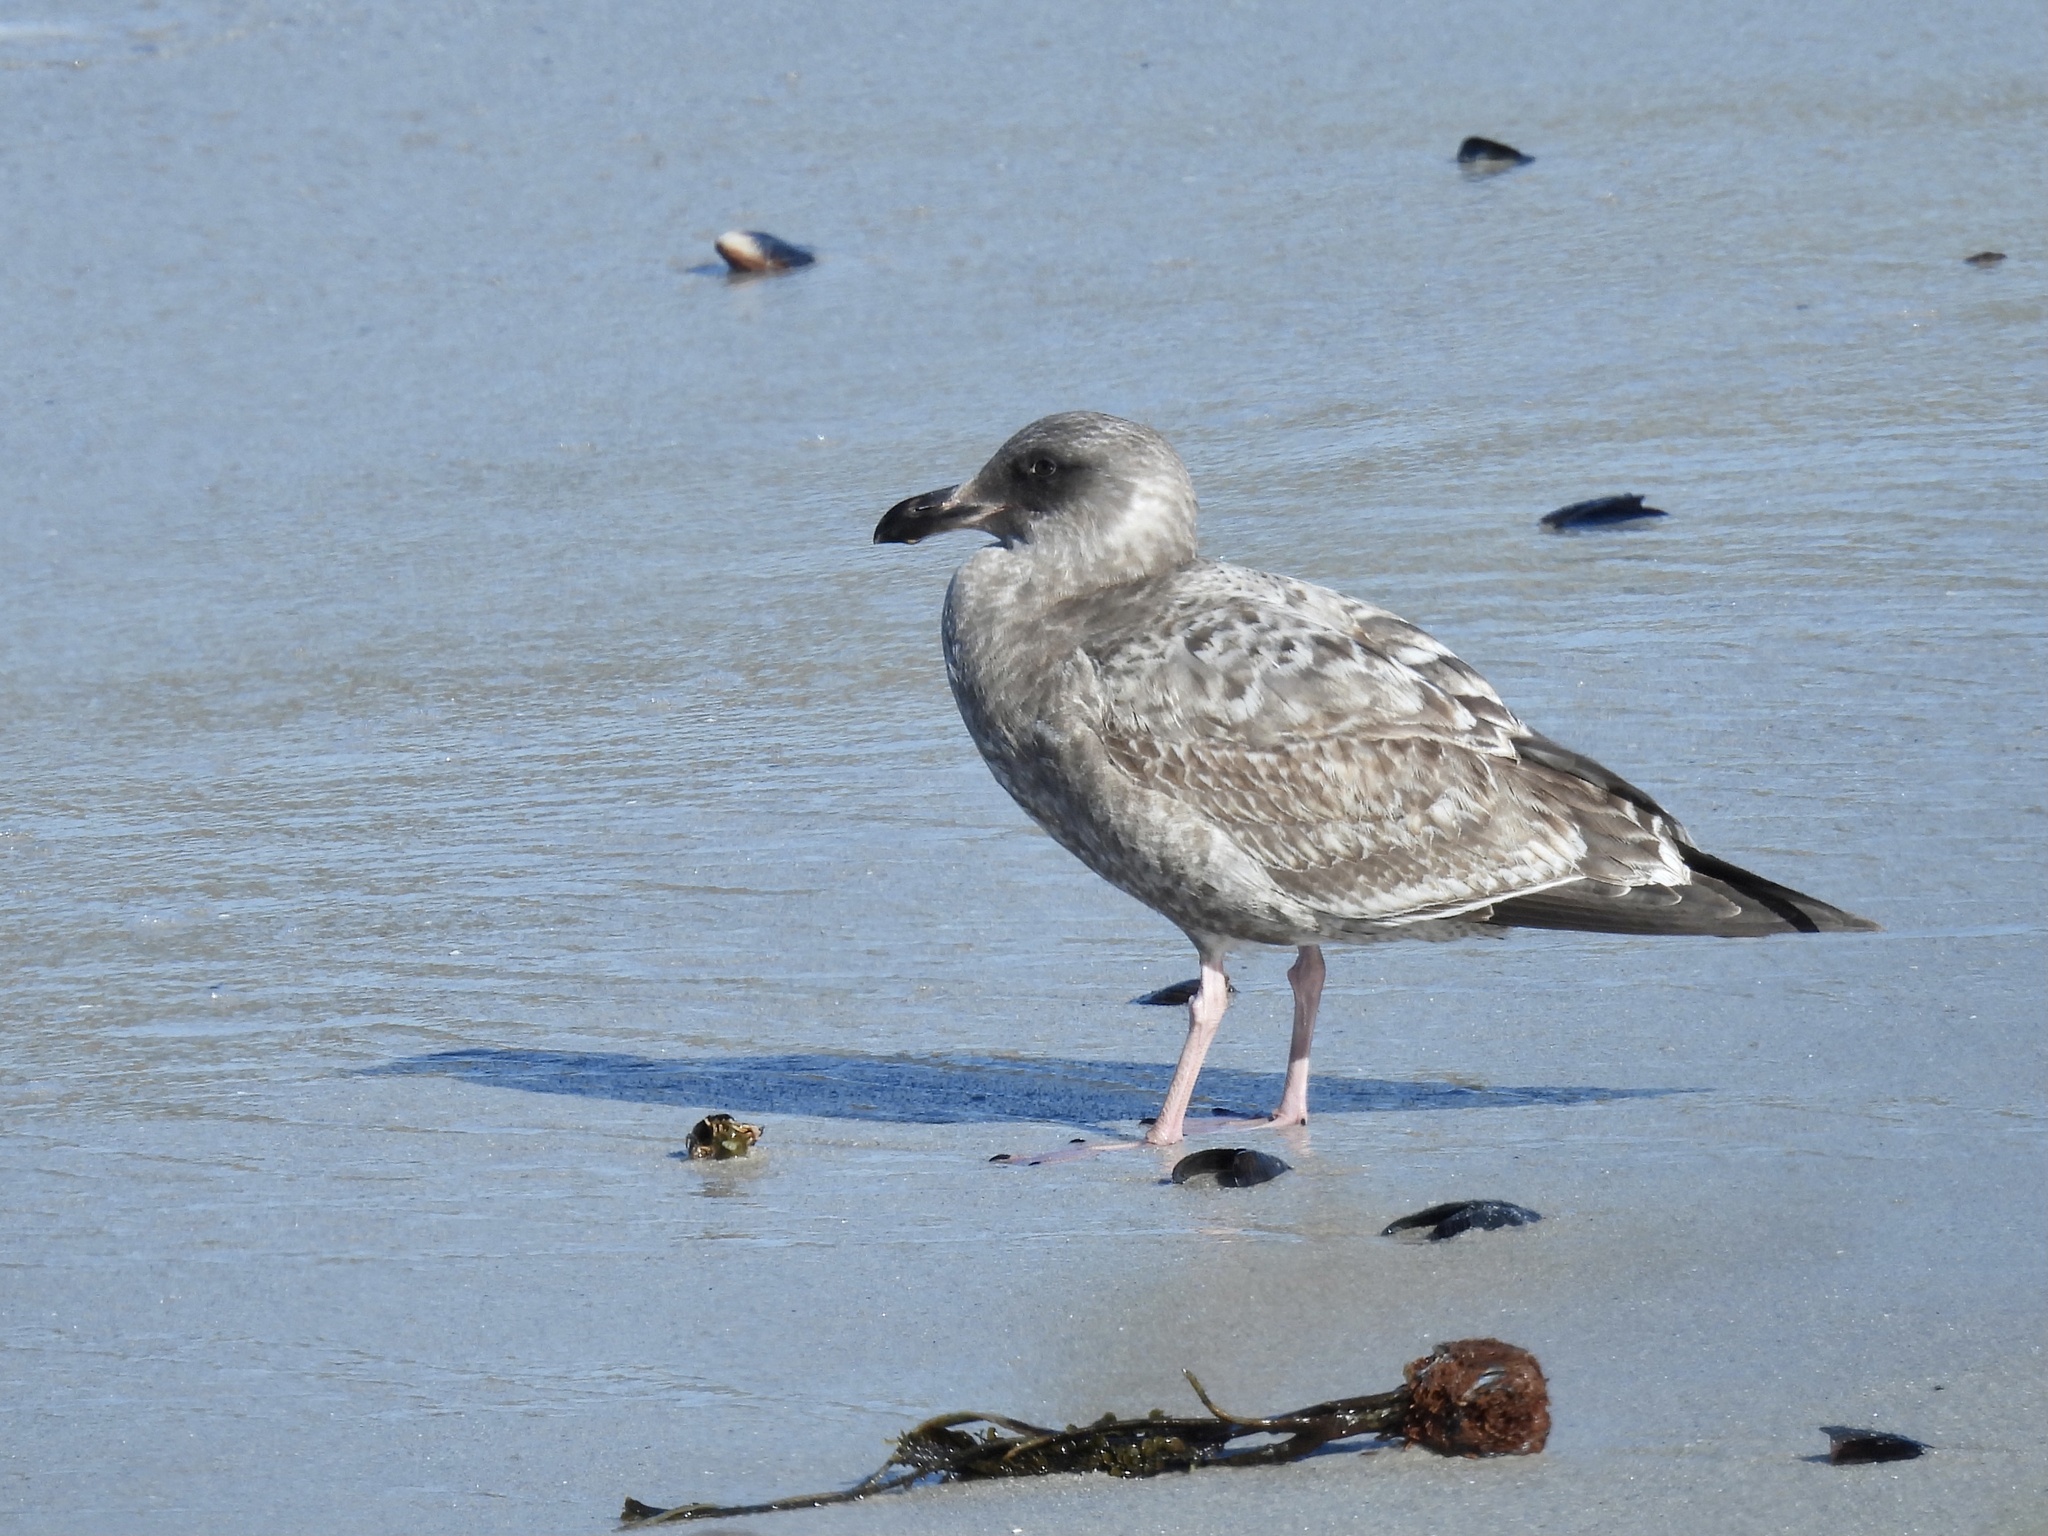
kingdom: Animalia
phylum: Chordata
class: Aves
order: Charadriiformes
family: Laridae
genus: Larus
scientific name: Larus occidentalis
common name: Western gull
